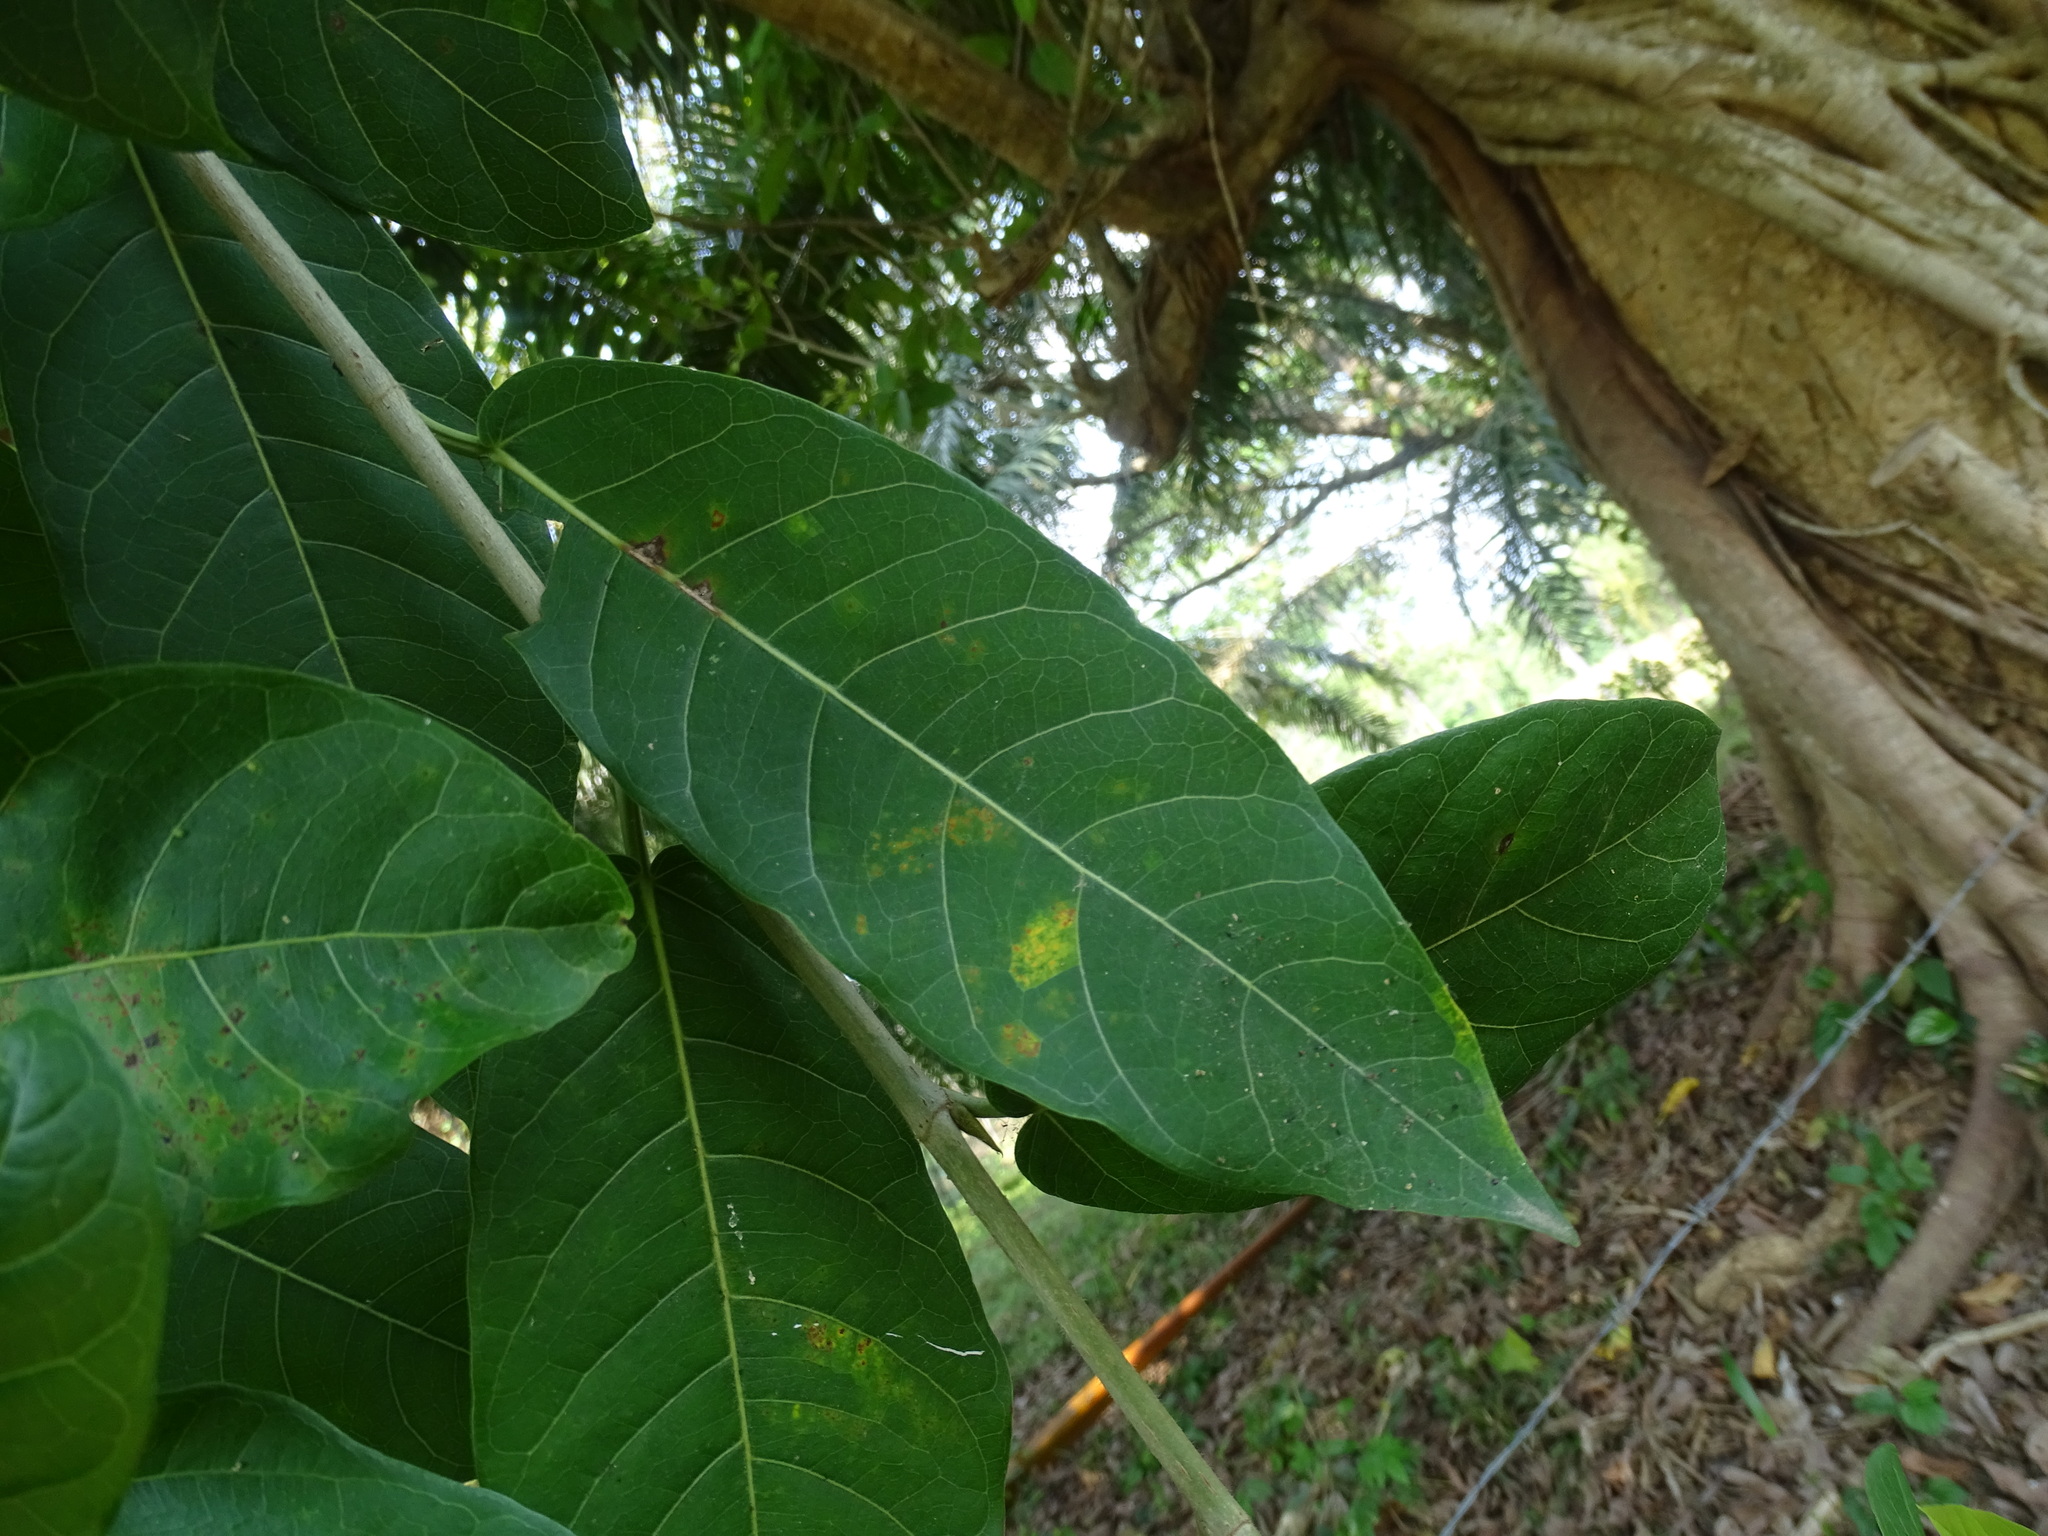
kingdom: Plantae
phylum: Tracheophyta
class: Magnoliopsida
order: Rosales
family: Moraceae
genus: Ficus
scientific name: Ficus crassinervia
